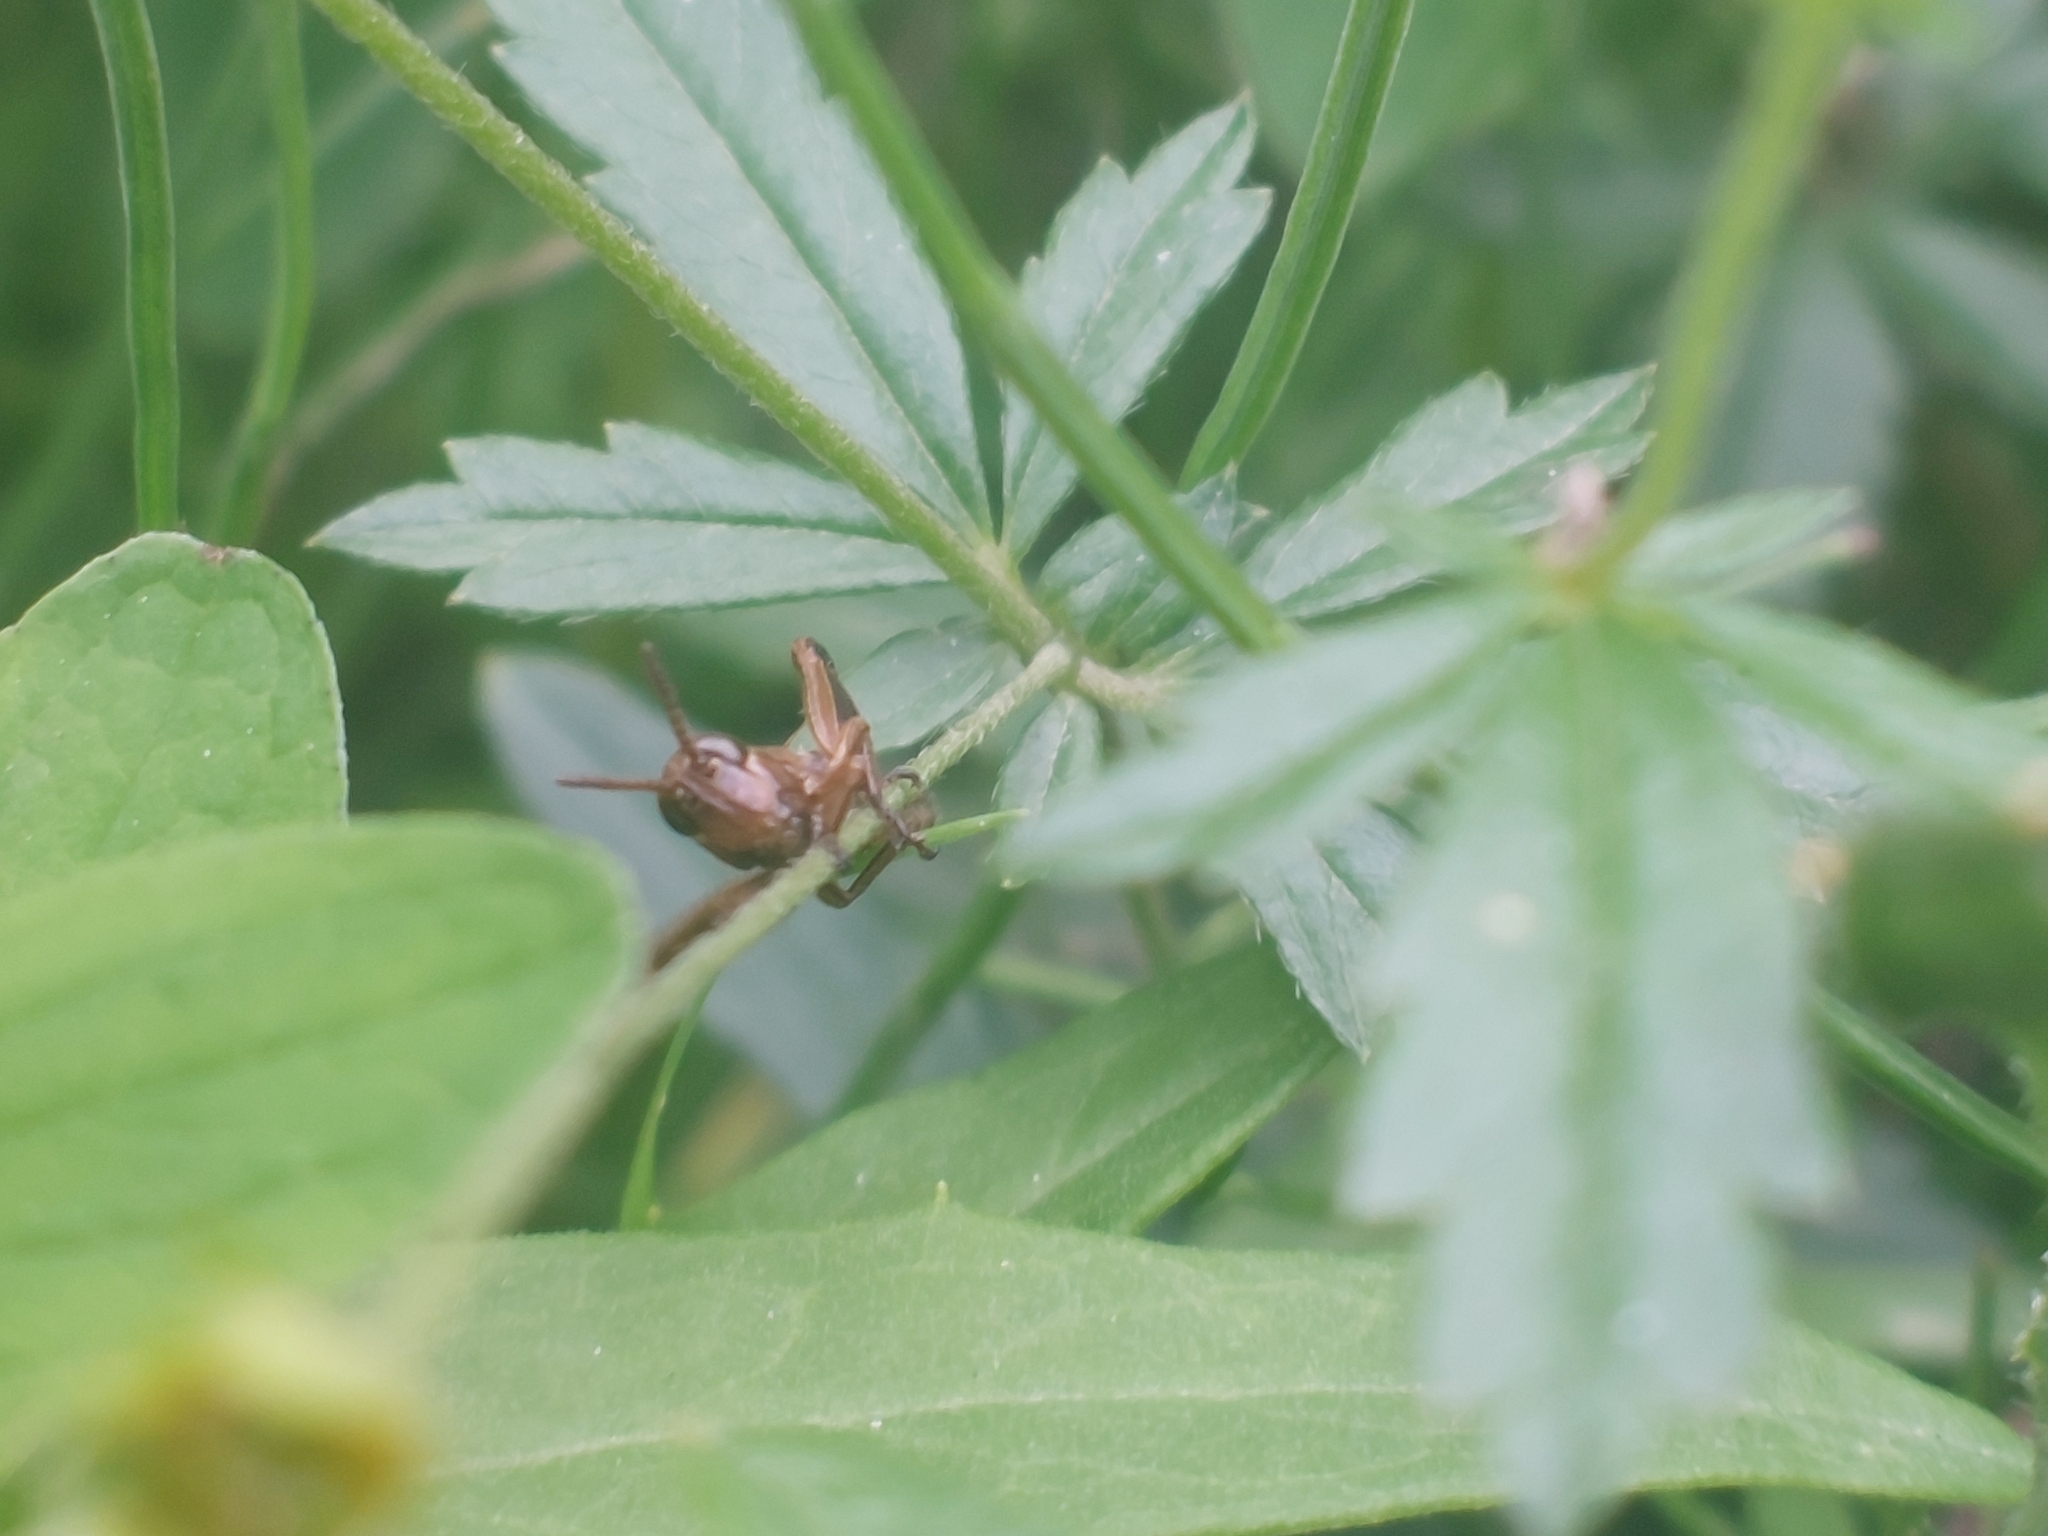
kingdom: Animalia
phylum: Arthropoda
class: Insecta
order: Orthoptera
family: Acrididae
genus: Stethophyma
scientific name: Stethophyma grossum
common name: Large marsh grasshopper
